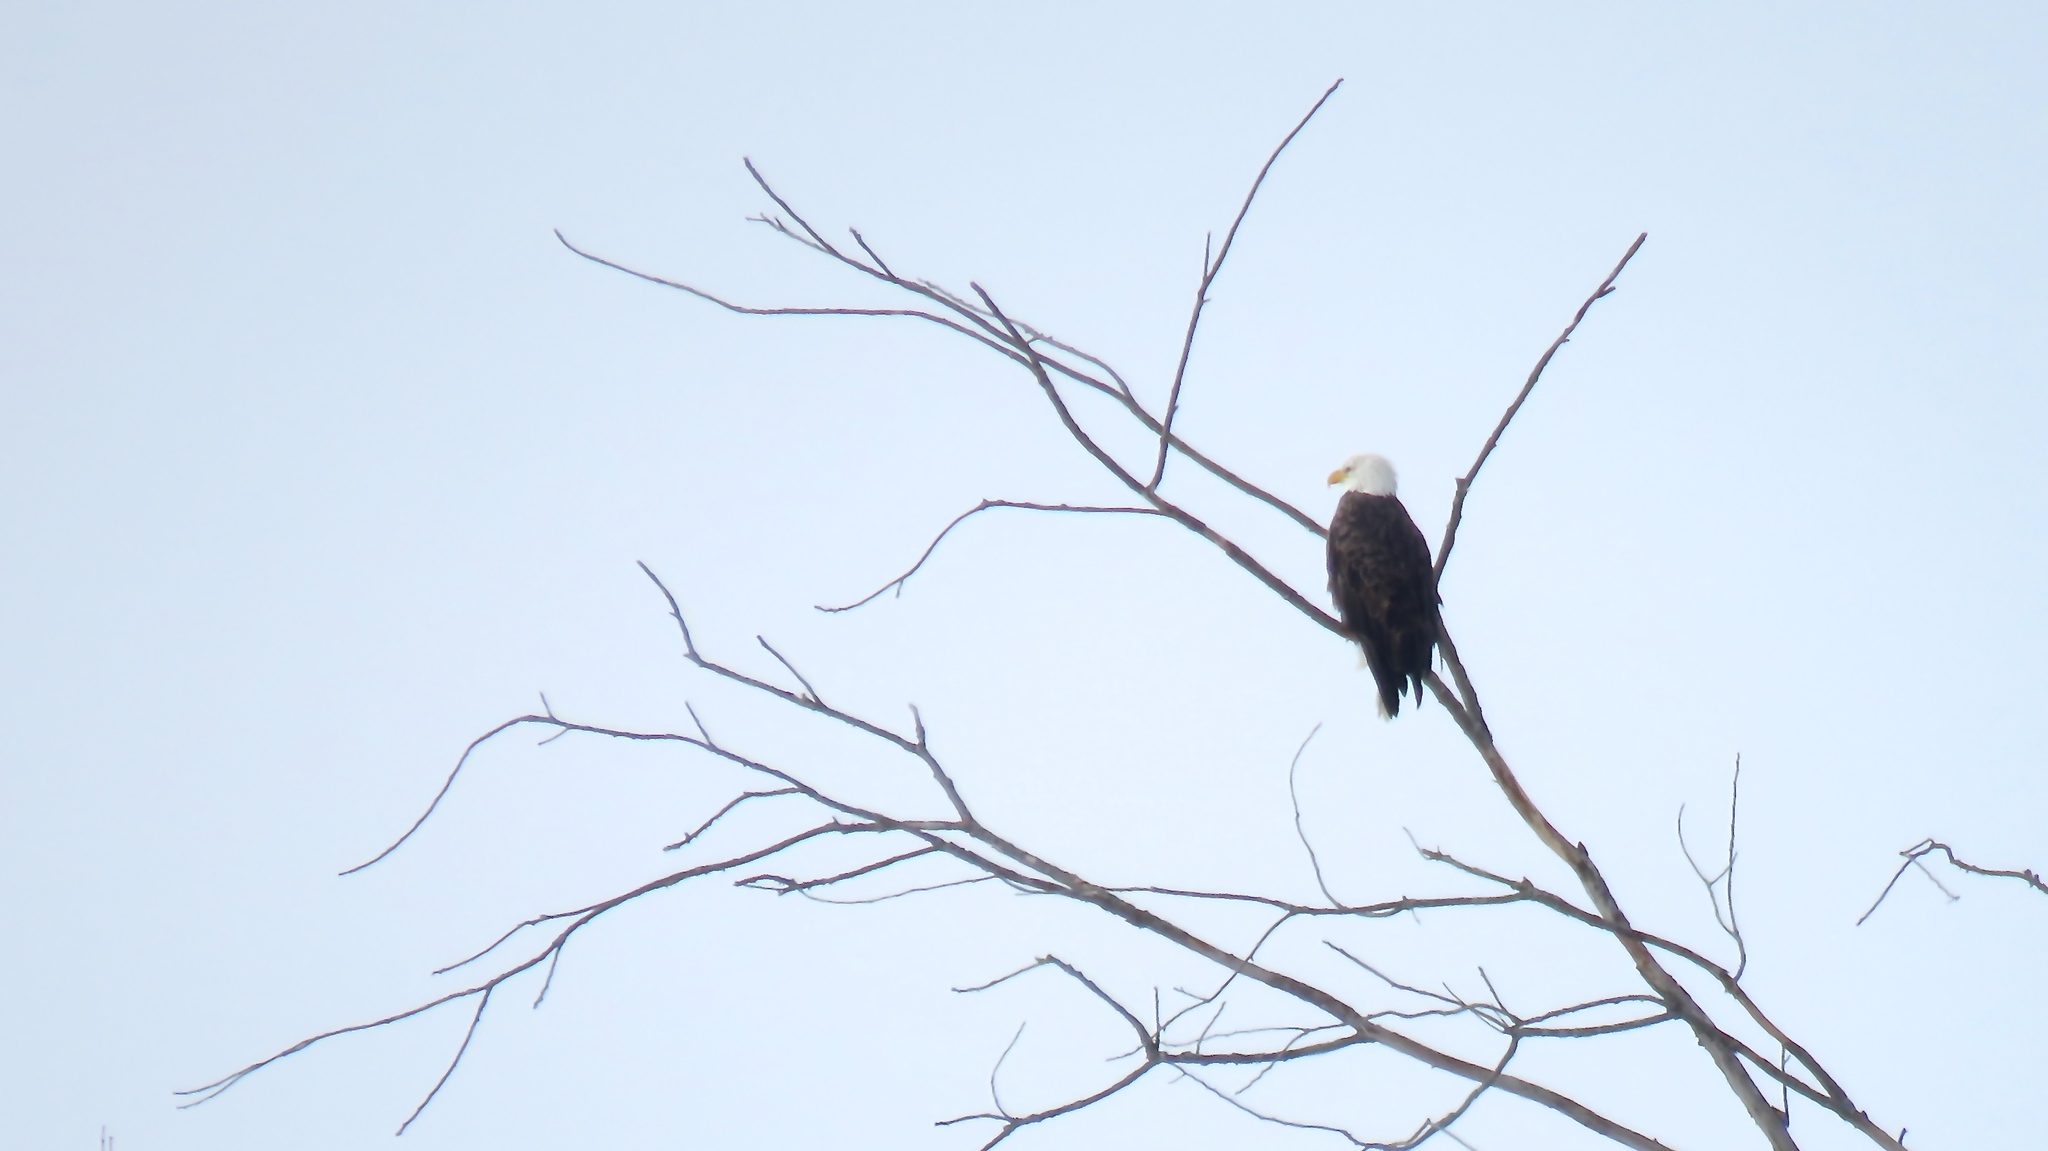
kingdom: Animalia
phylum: Chordata
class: Aves
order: Accipitriformes
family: Accipitridae
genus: Haliaeetus
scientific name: Haliaeetus leucocephalus
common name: Bald eagle
